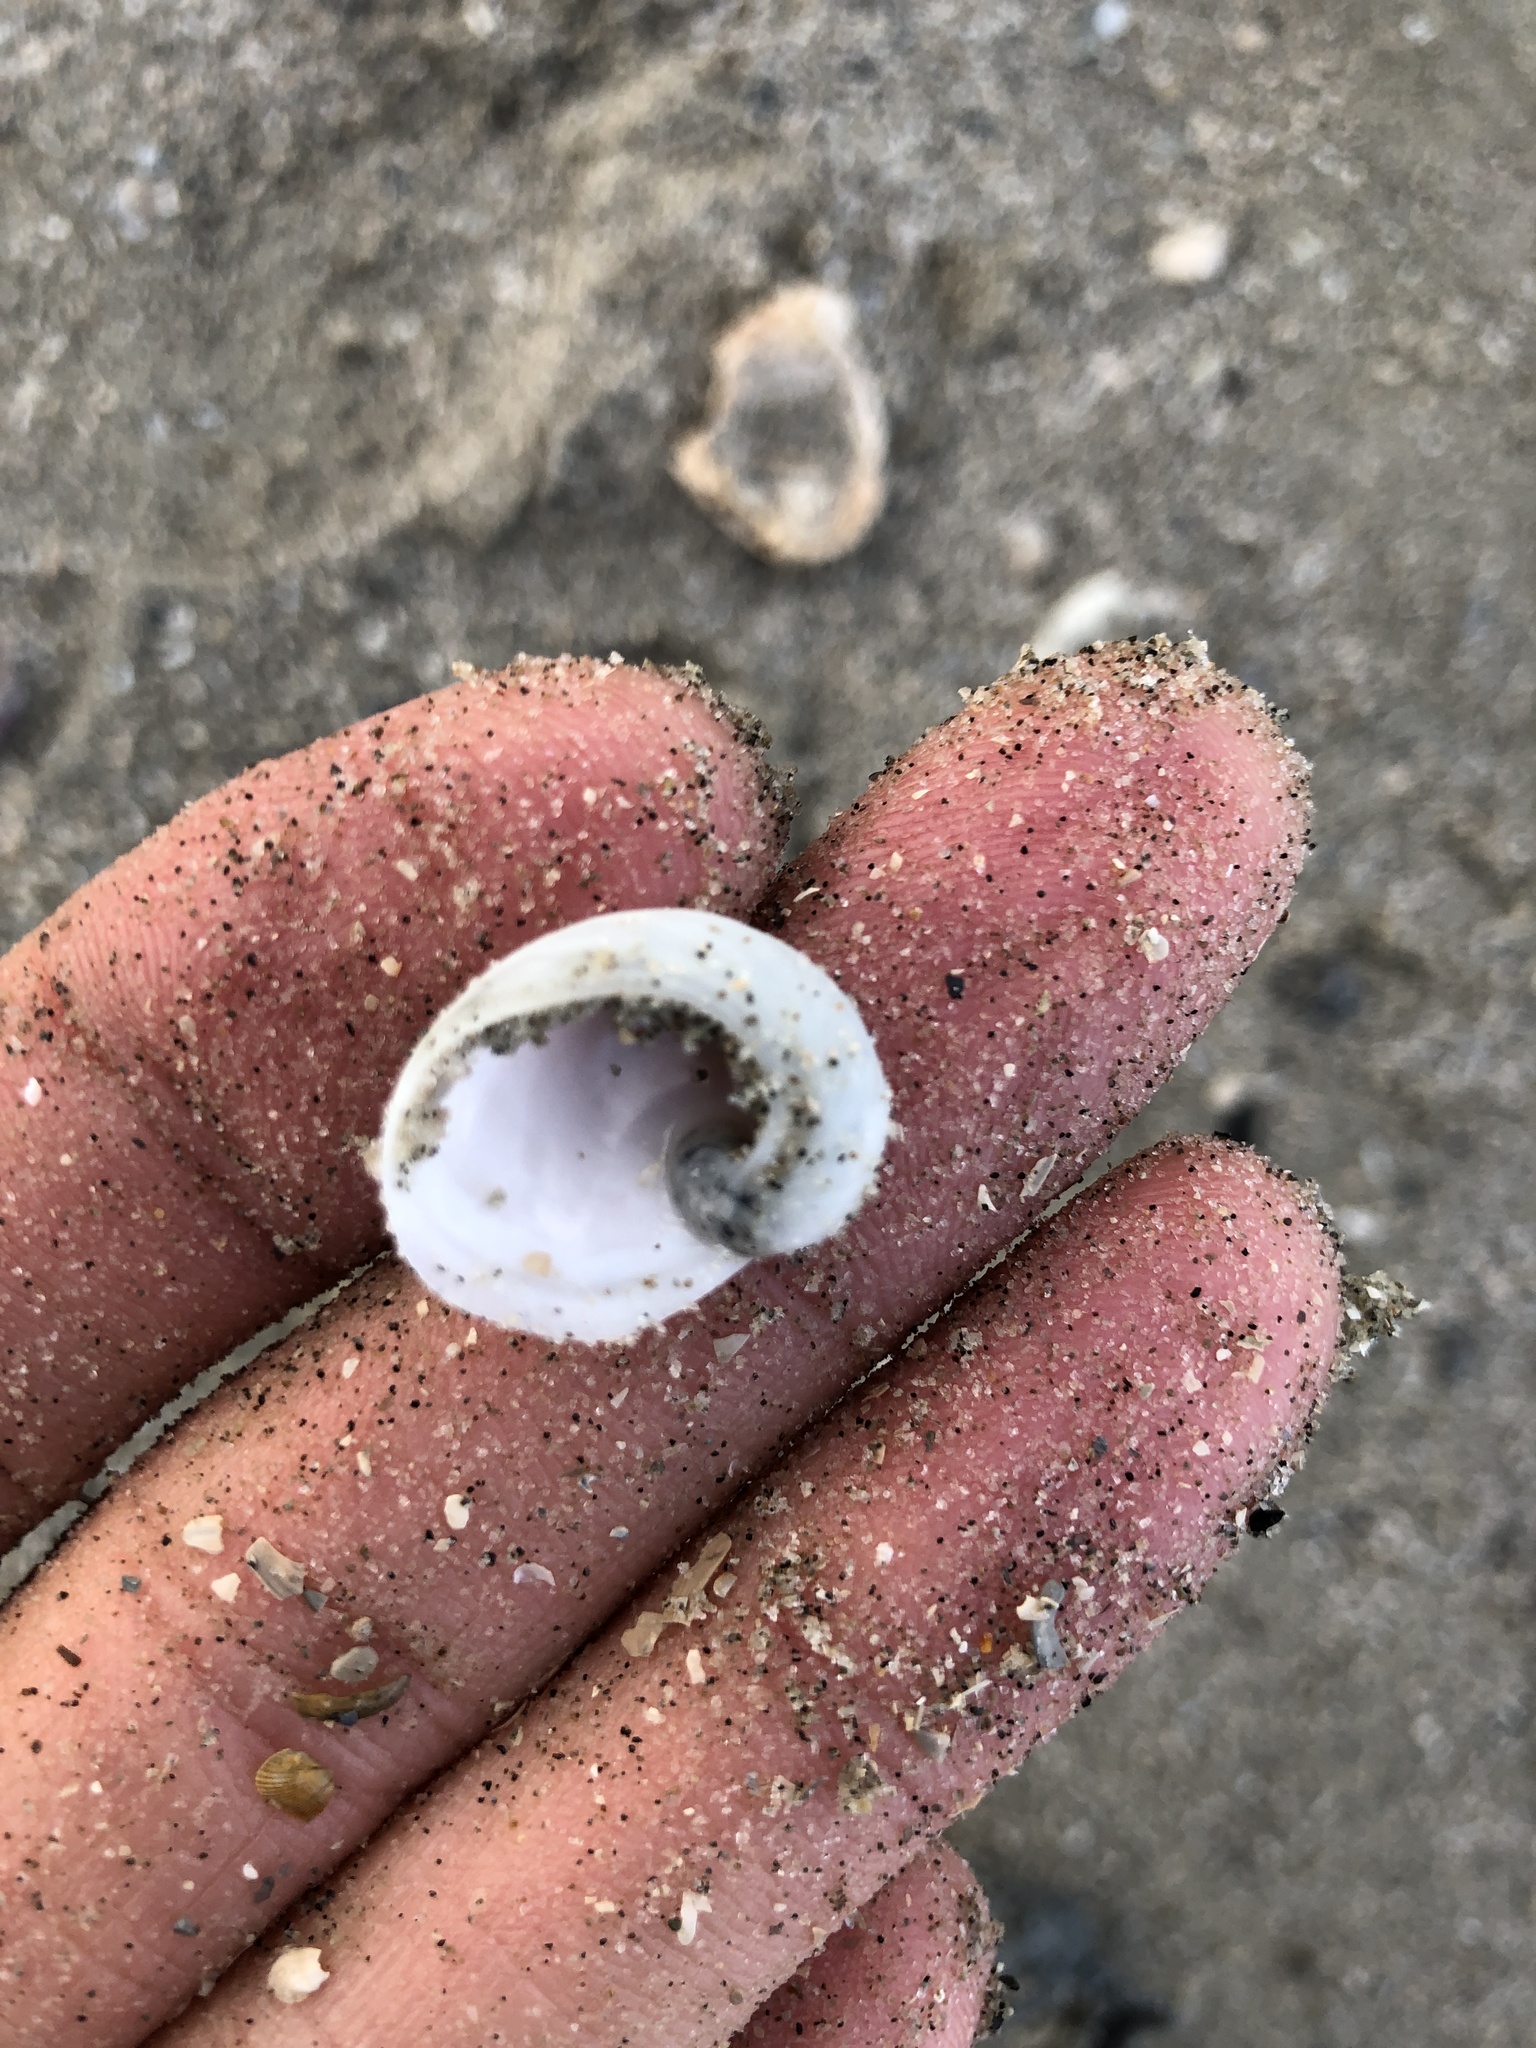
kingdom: Animalia
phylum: Mollusca
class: Gastropoda
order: Littorinimorpha
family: Naticidae
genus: Sinum
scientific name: Sinum perspectivum
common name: White baby ear
